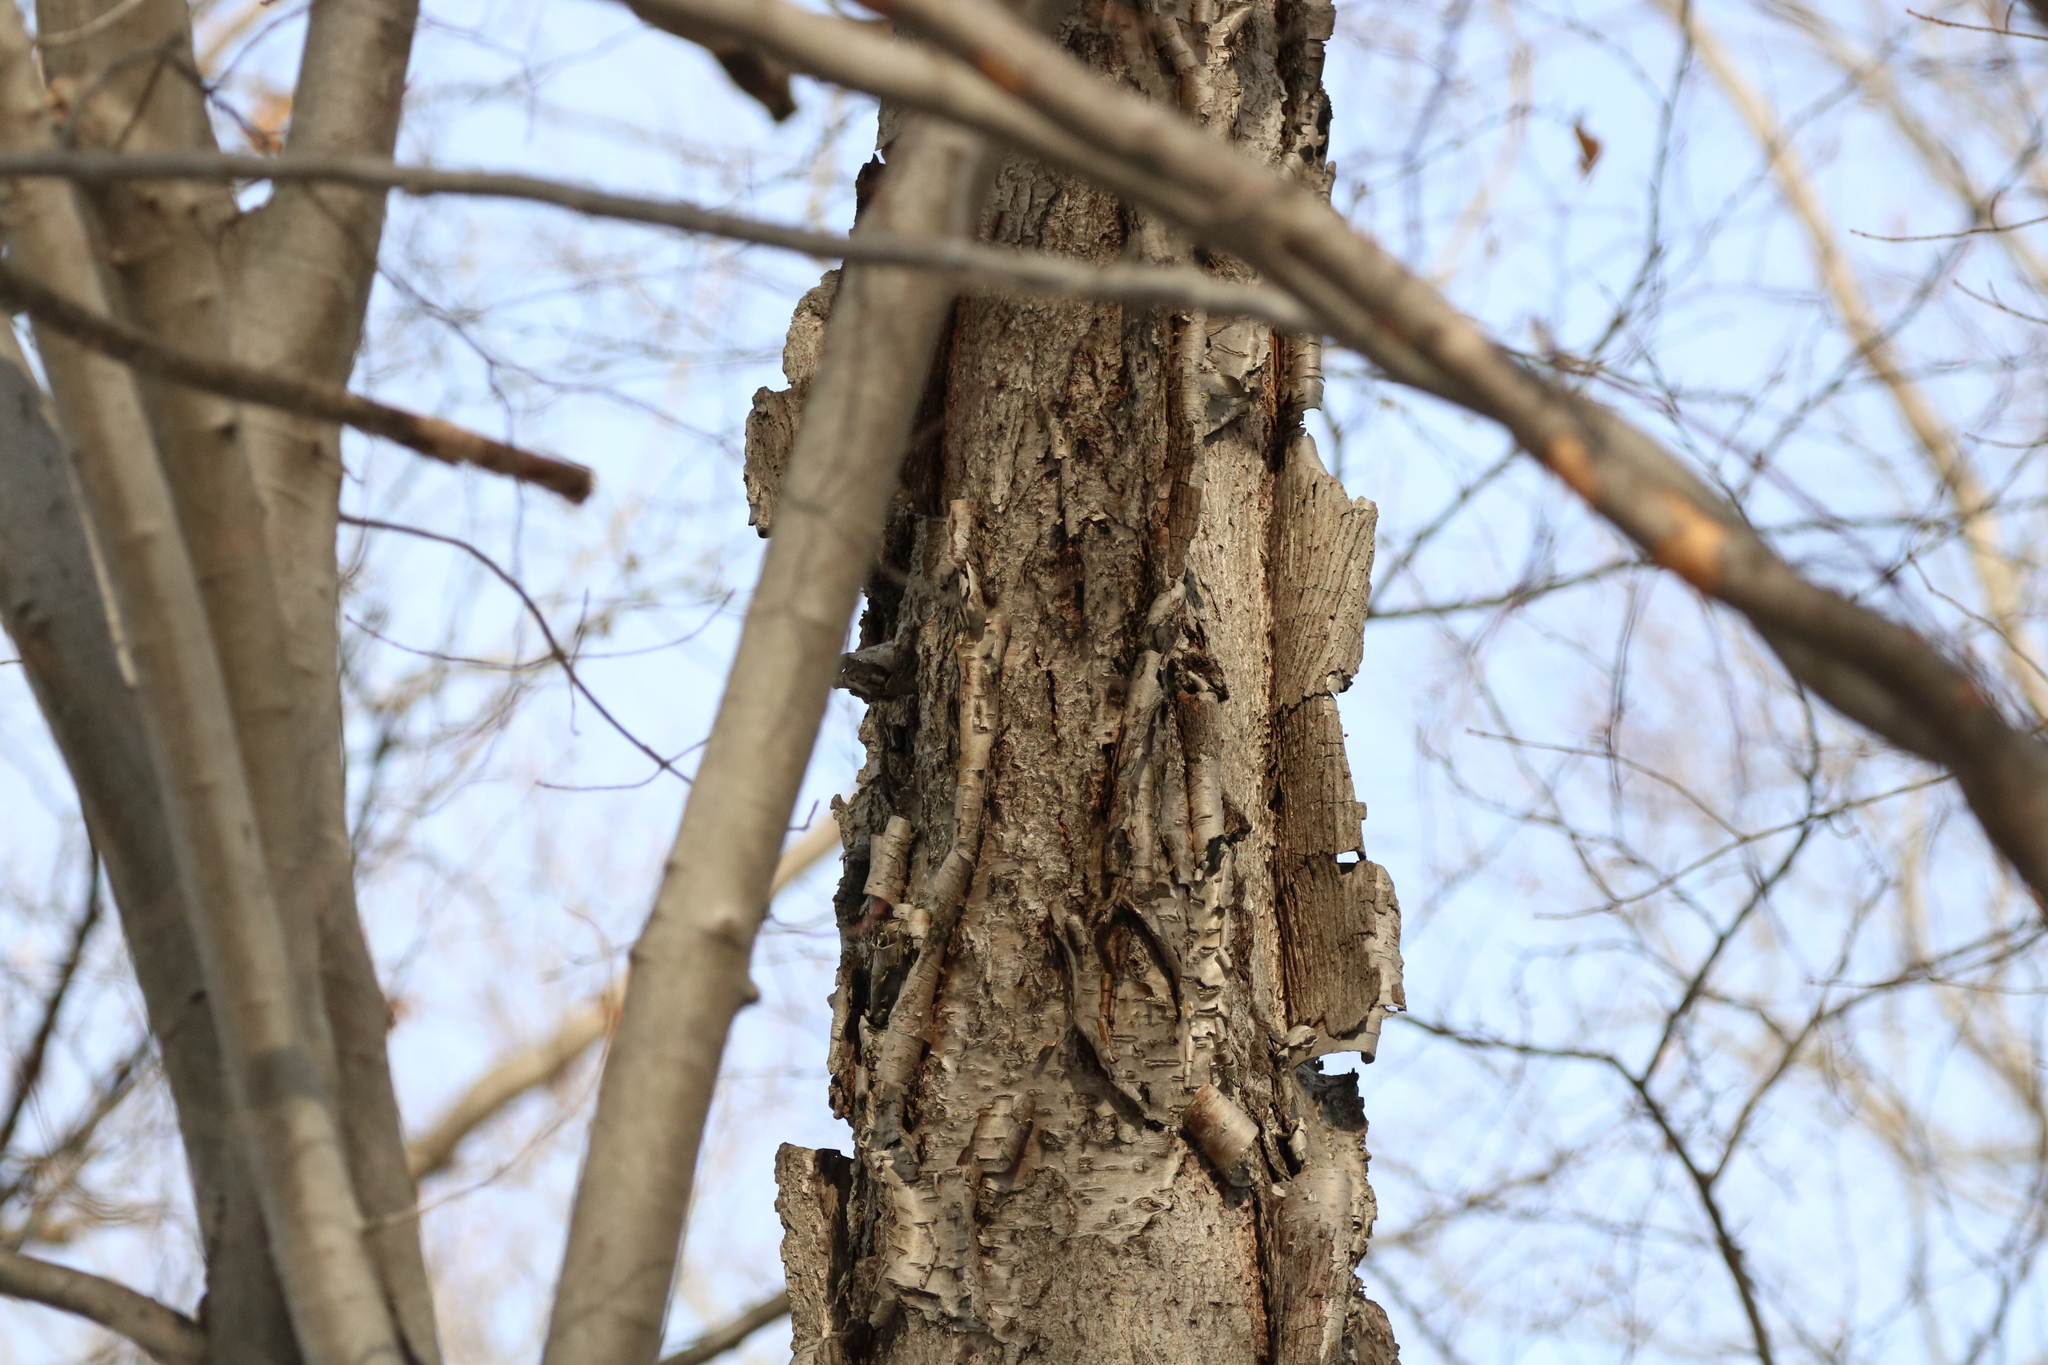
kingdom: Plantae
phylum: Tracheophyta
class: Magnoliopsida
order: Fagales
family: Betulaceae
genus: Betula
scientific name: Betula alleghaniensis
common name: Yellow birch
